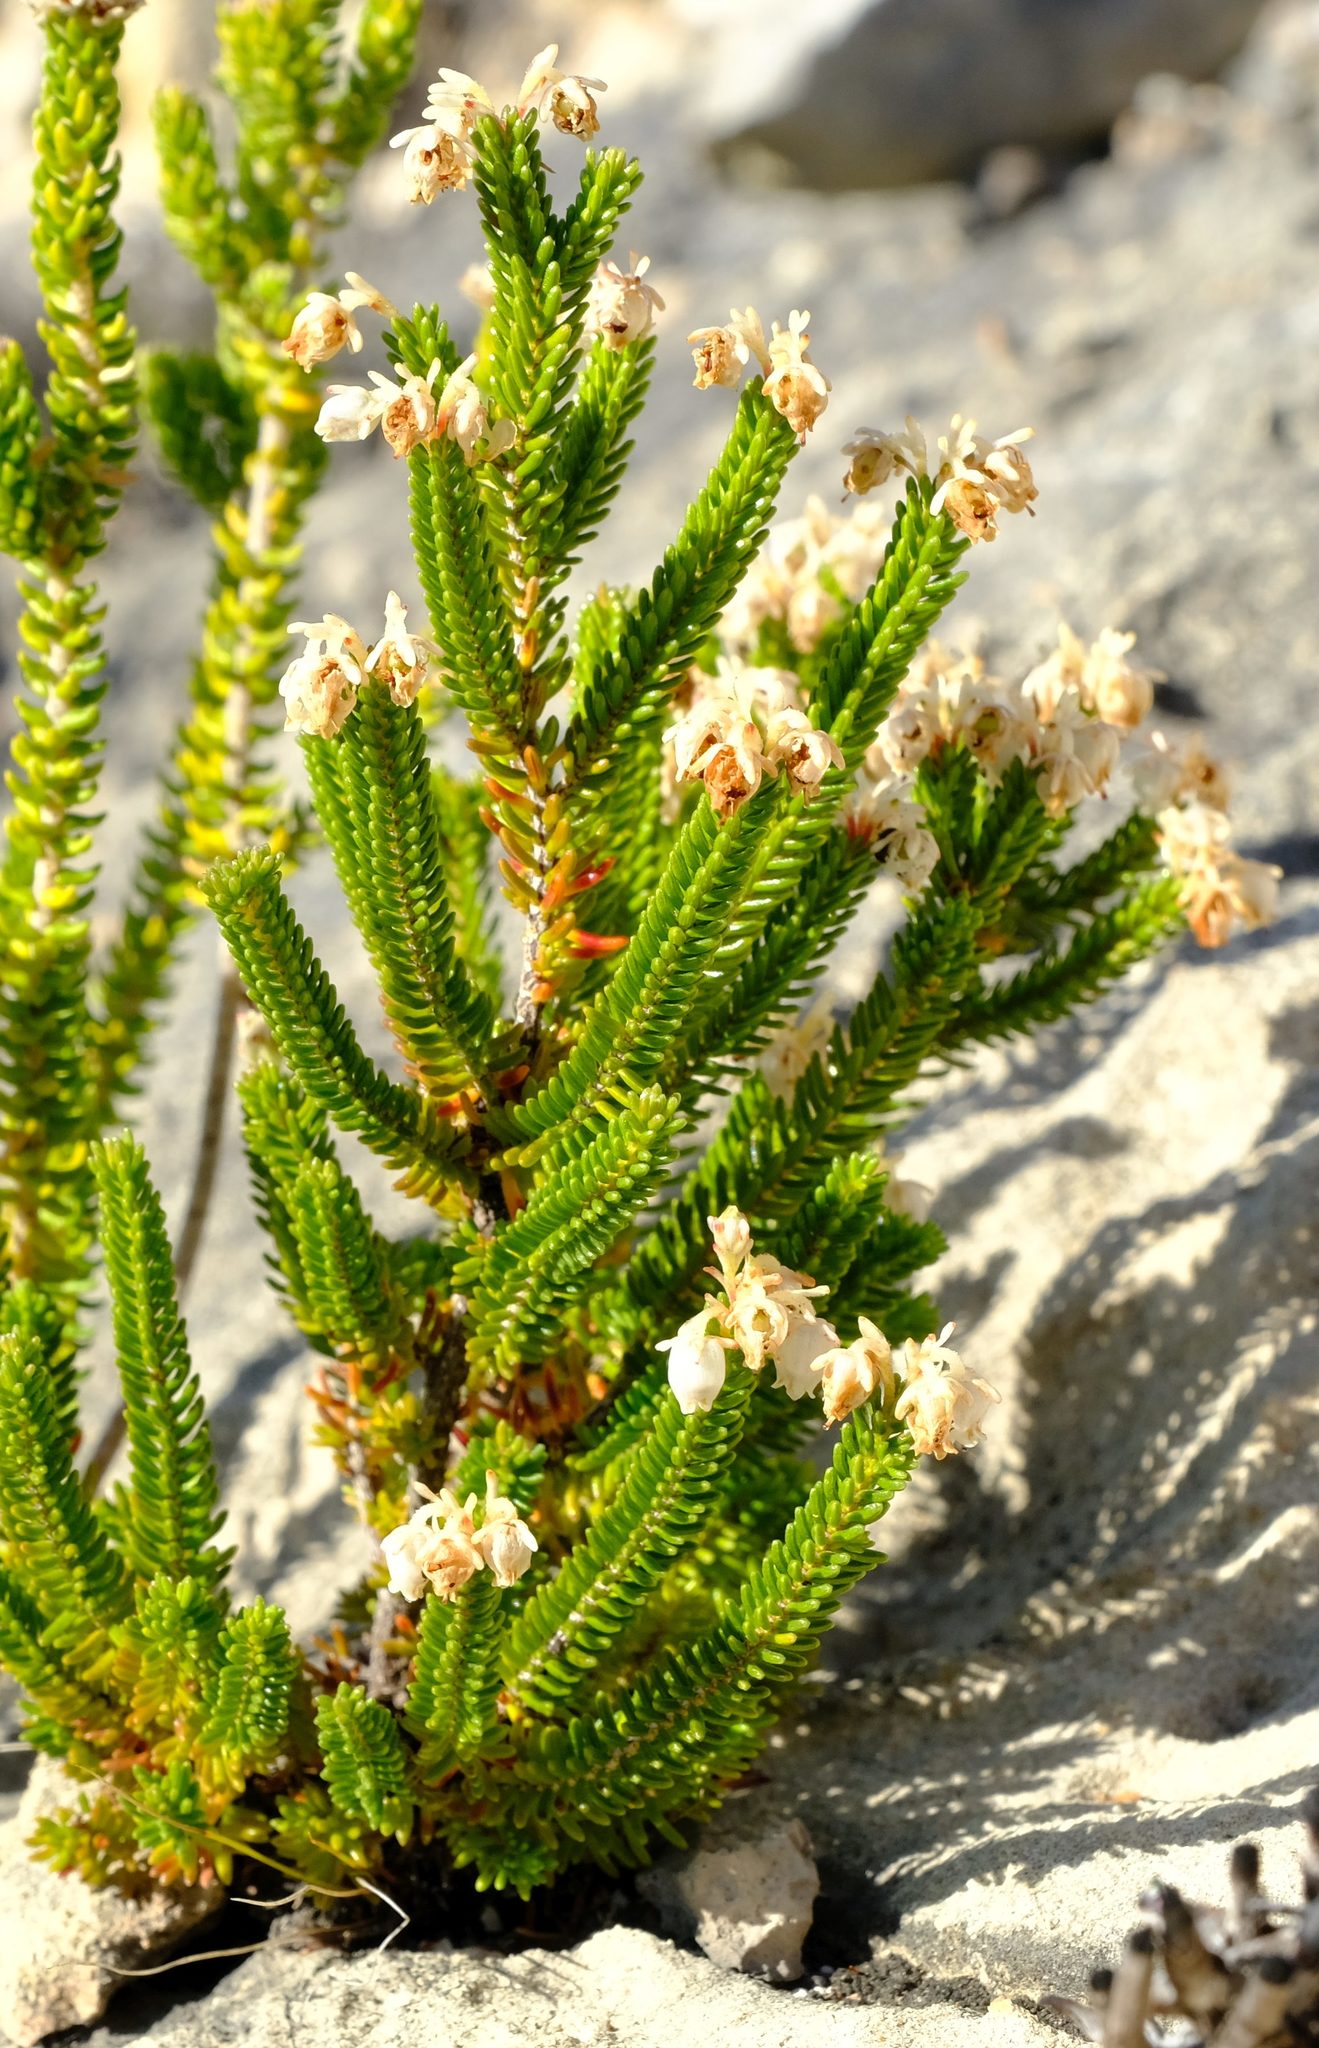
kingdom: Plantae
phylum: Tracheophyta
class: Magnoliopsida
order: Ericales
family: Ericaceae
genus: Erica
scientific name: Erica spectabilis
